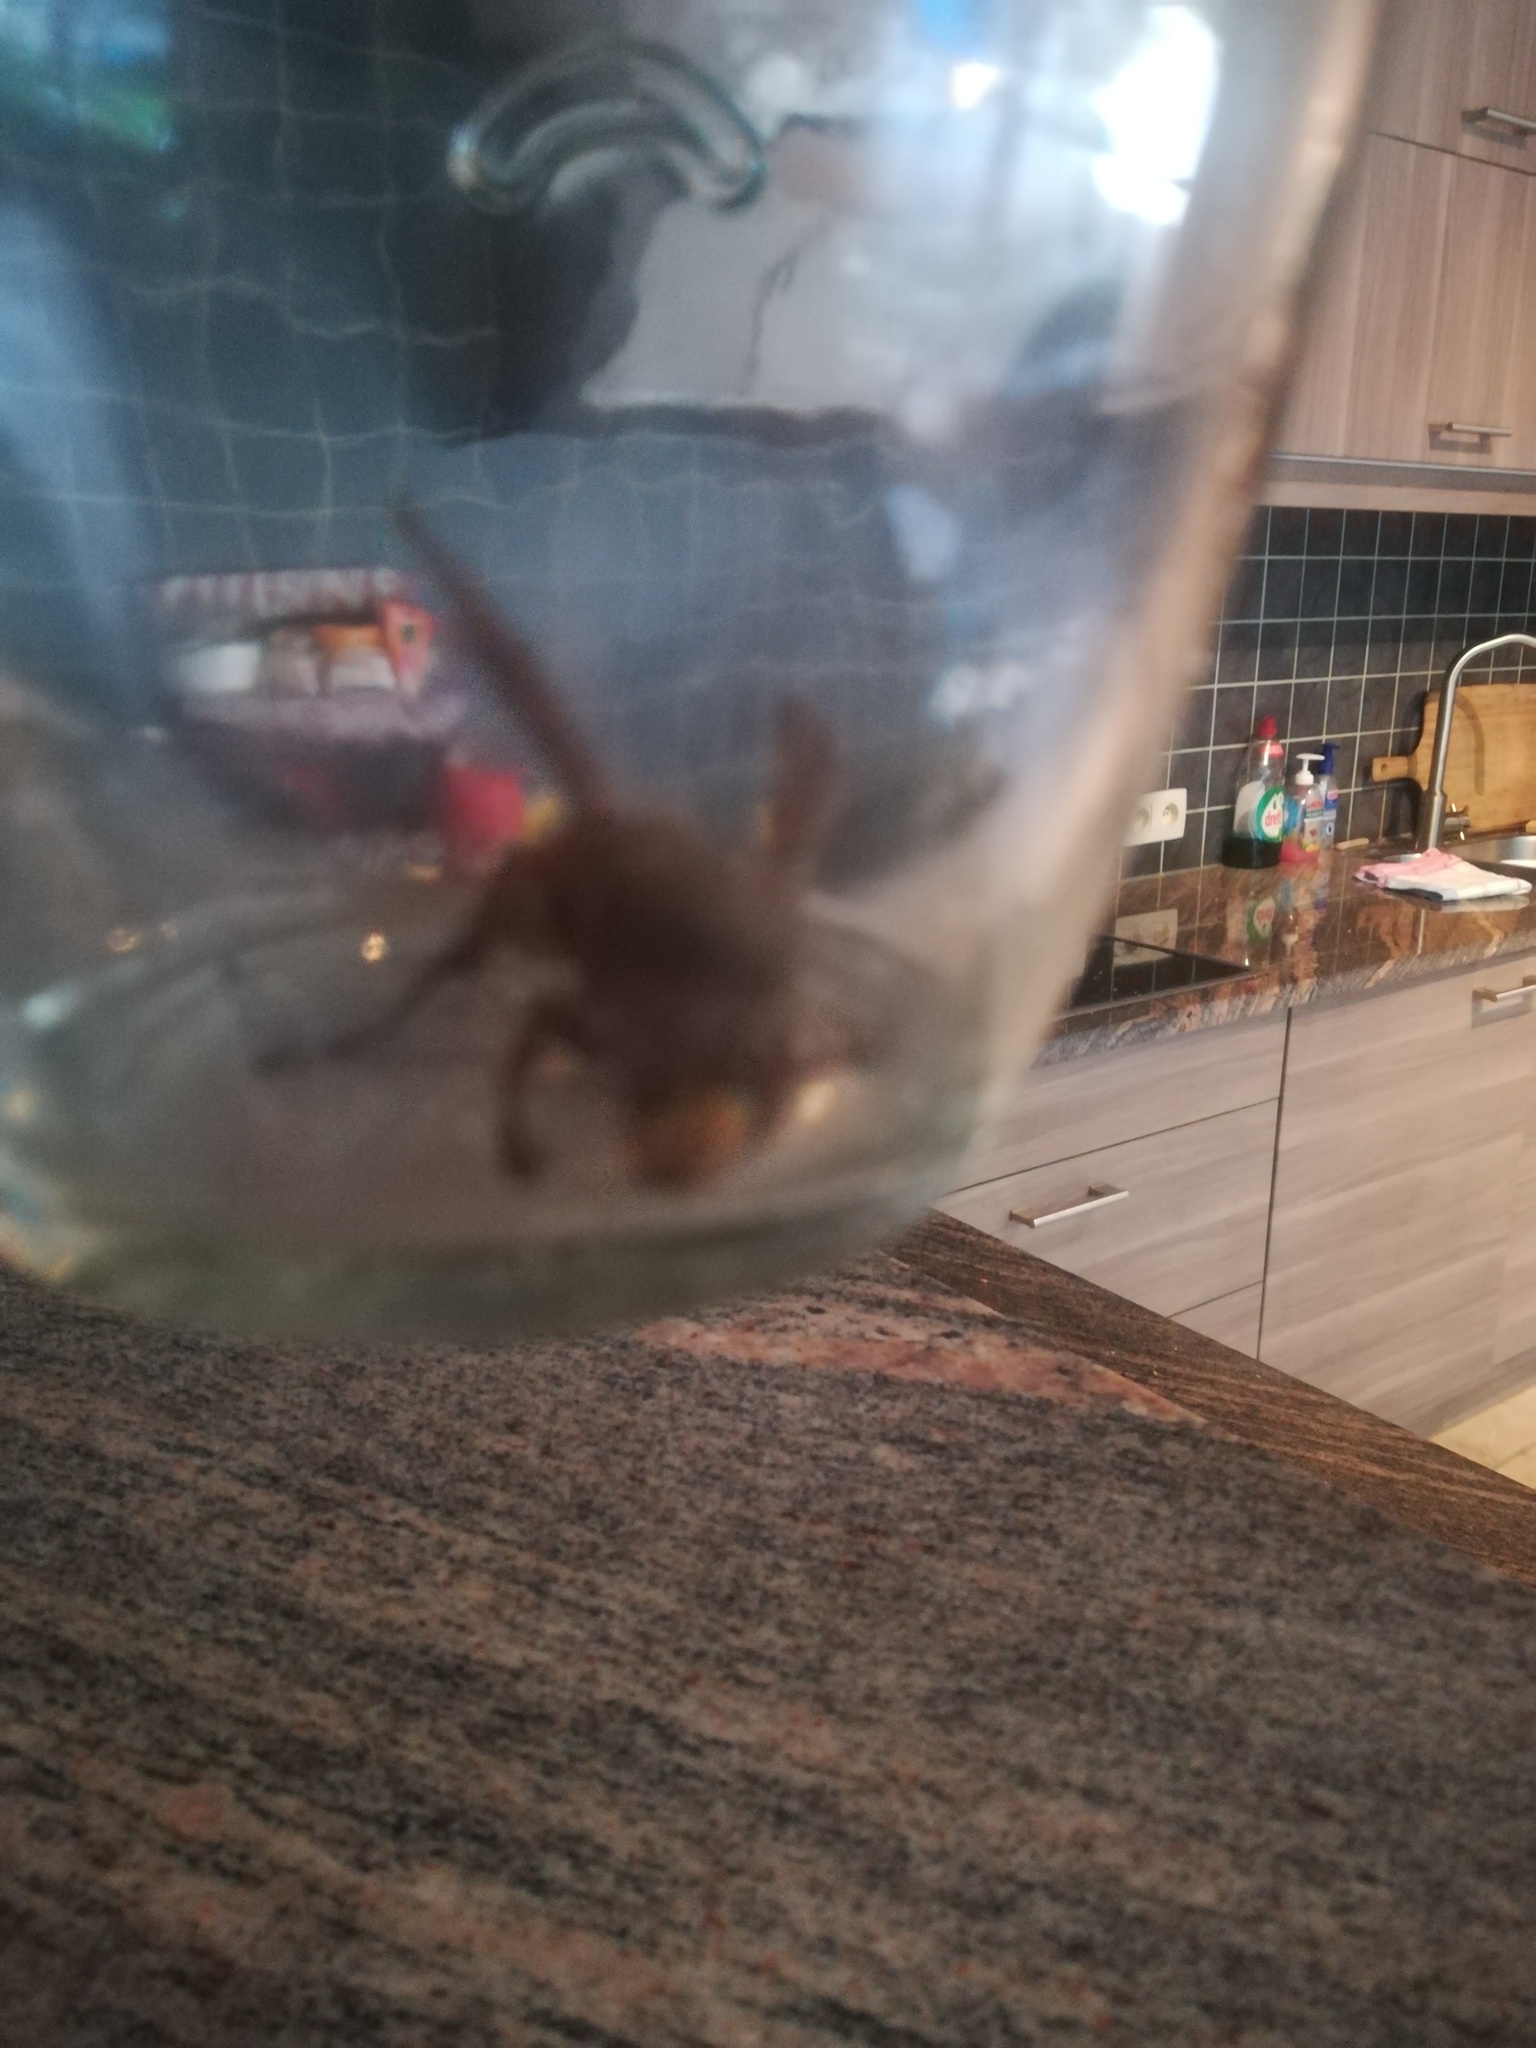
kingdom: Animalia
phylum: Arthropoda
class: Insecta
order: Hymenoptera
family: Vespidae
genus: Vespa
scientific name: Vespa crabro
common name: Hornet
